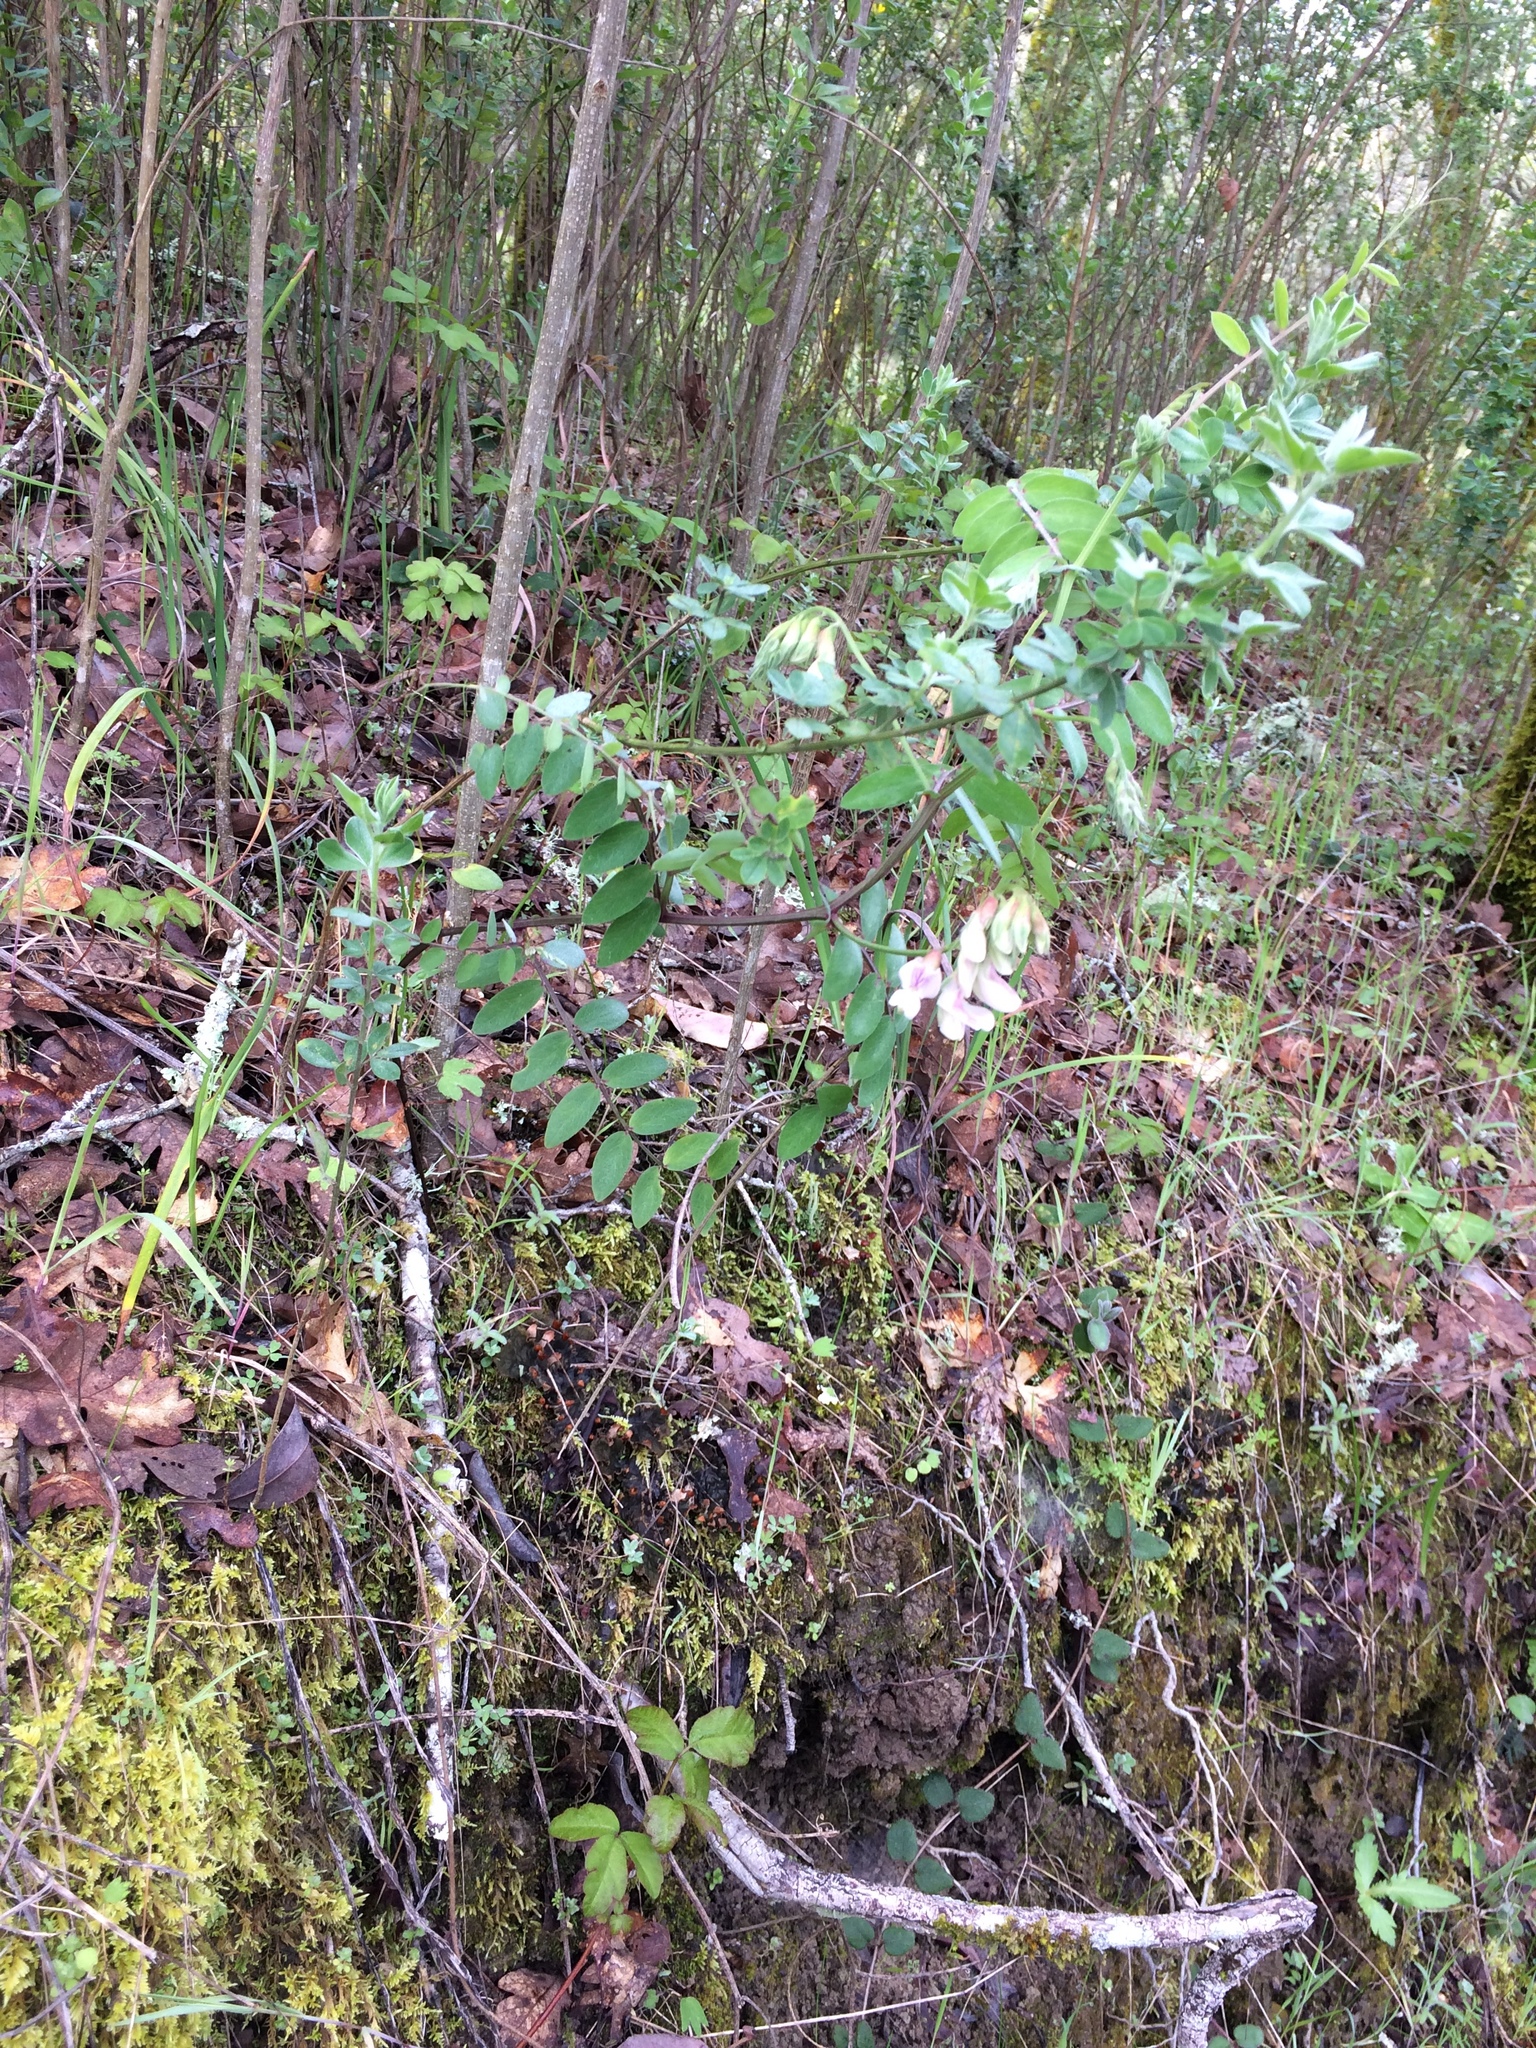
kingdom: Plantae
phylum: Tracheophyta
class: Magnoliopsida
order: Fabales
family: Fabaceae
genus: Lathyrus
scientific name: Lathyrus vestitus
